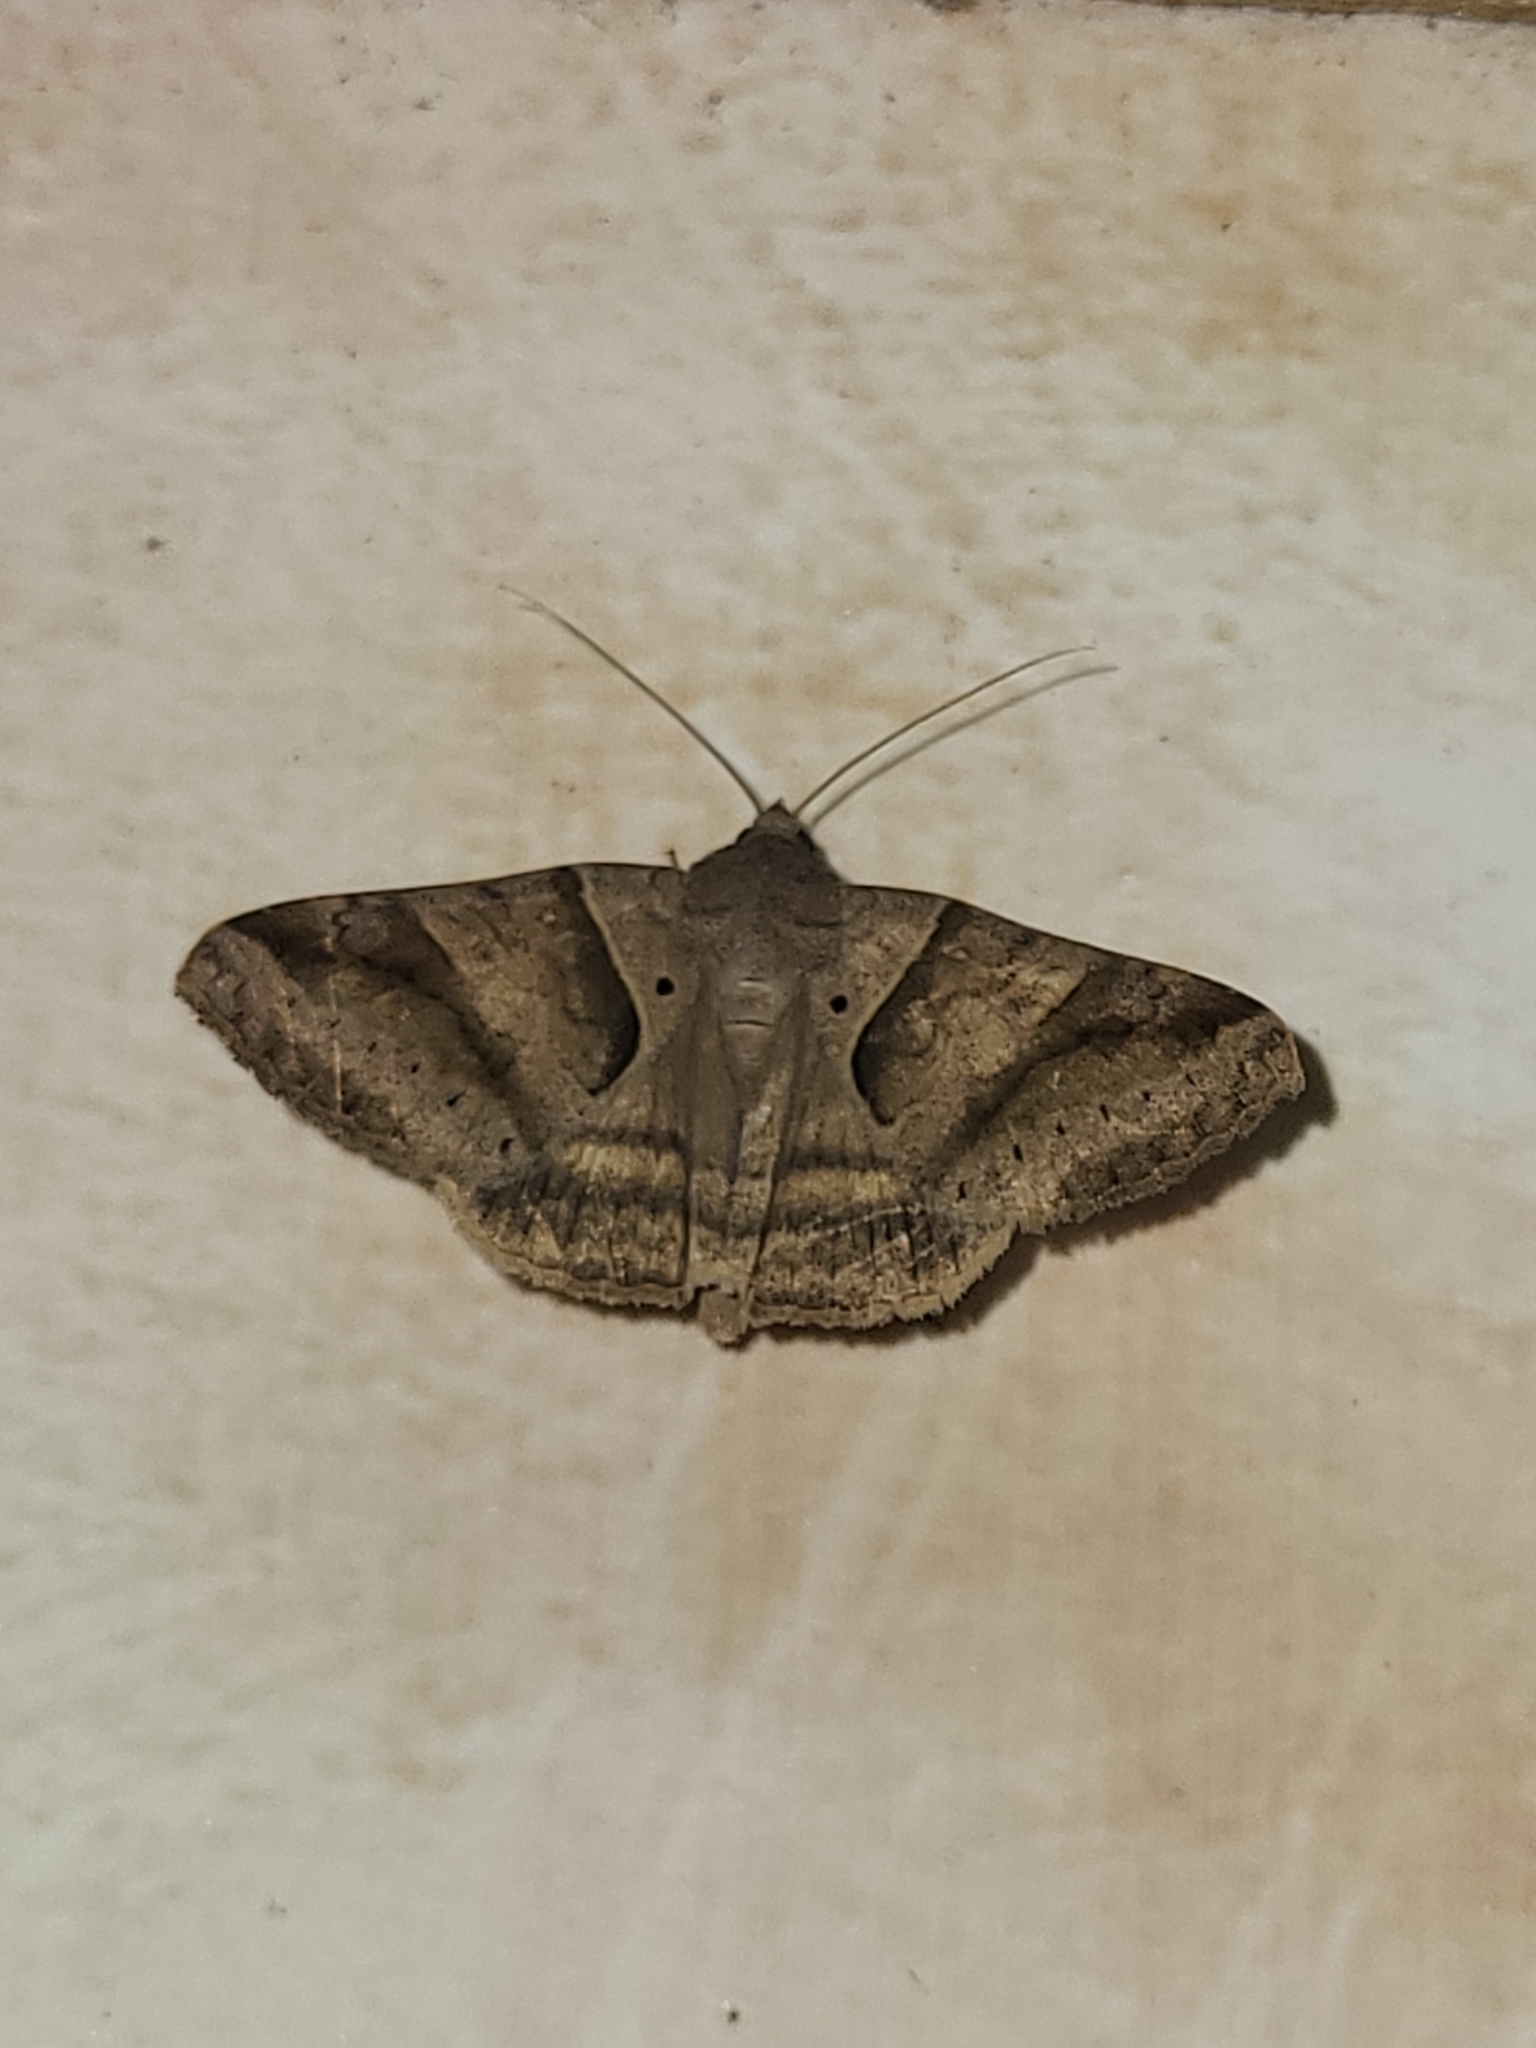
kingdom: Animalia
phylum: Arthropoda
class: Insecta
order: Lepidoptera
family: Erebidae
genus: Mocis
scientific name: Mocis mayeri
